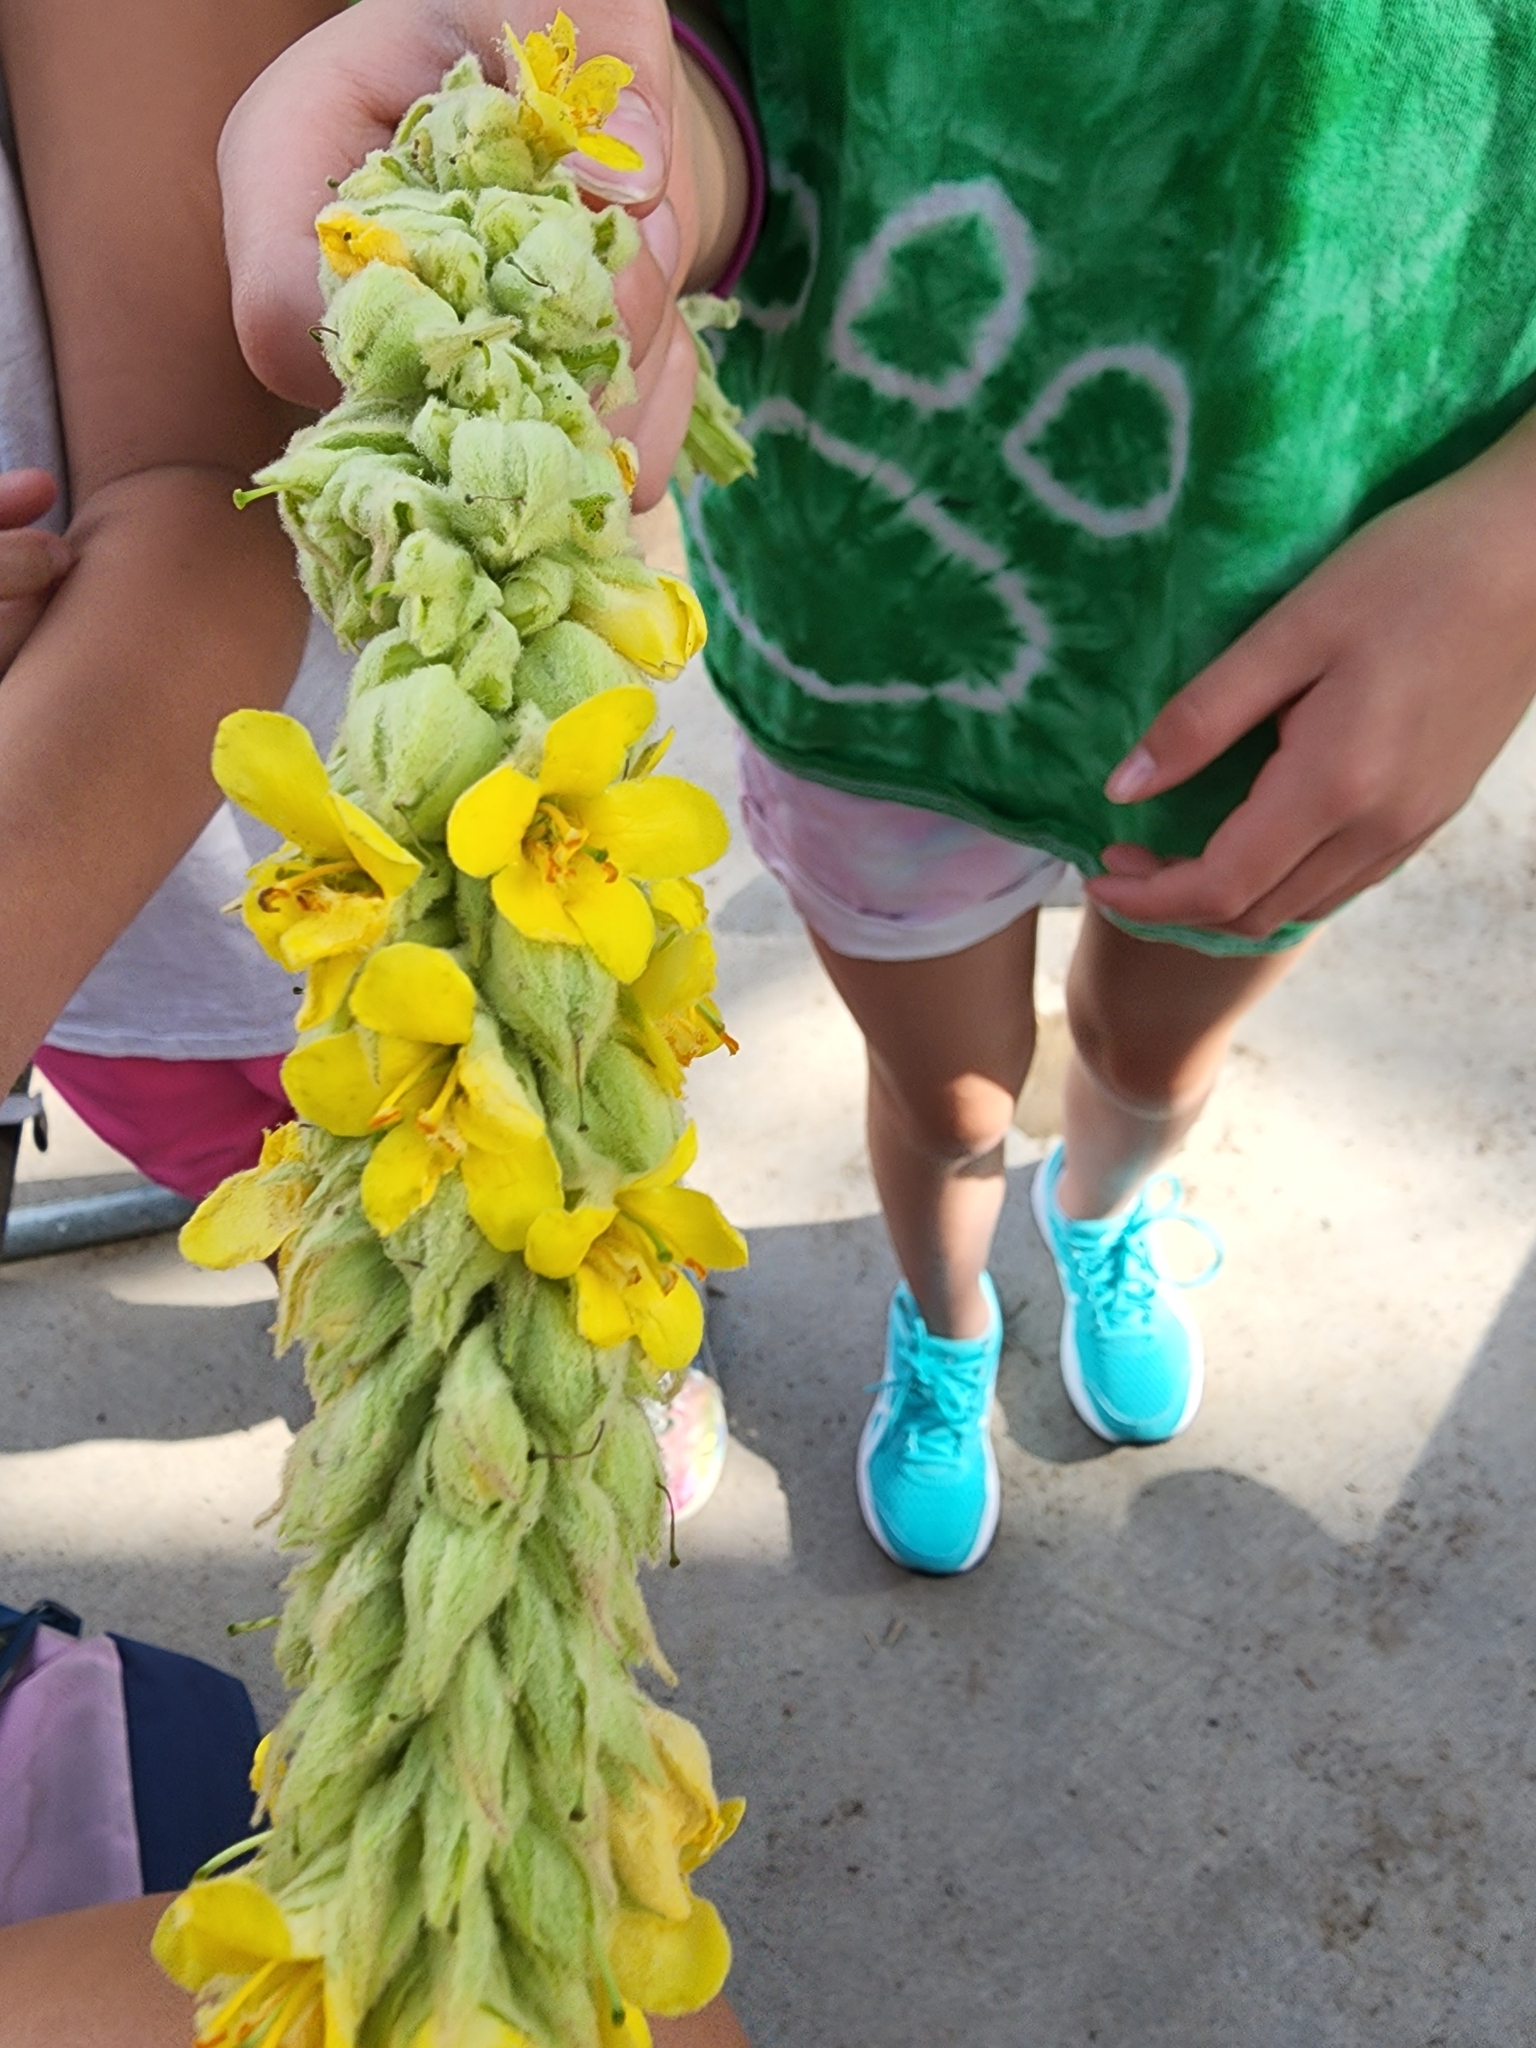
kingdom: Plantae
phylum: Tracheophyta
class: Magnoliopsida
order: Lamiales
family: Scrophulariaceae
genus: Verbascum
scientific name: Verbascum thapsus
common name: Common mullein
